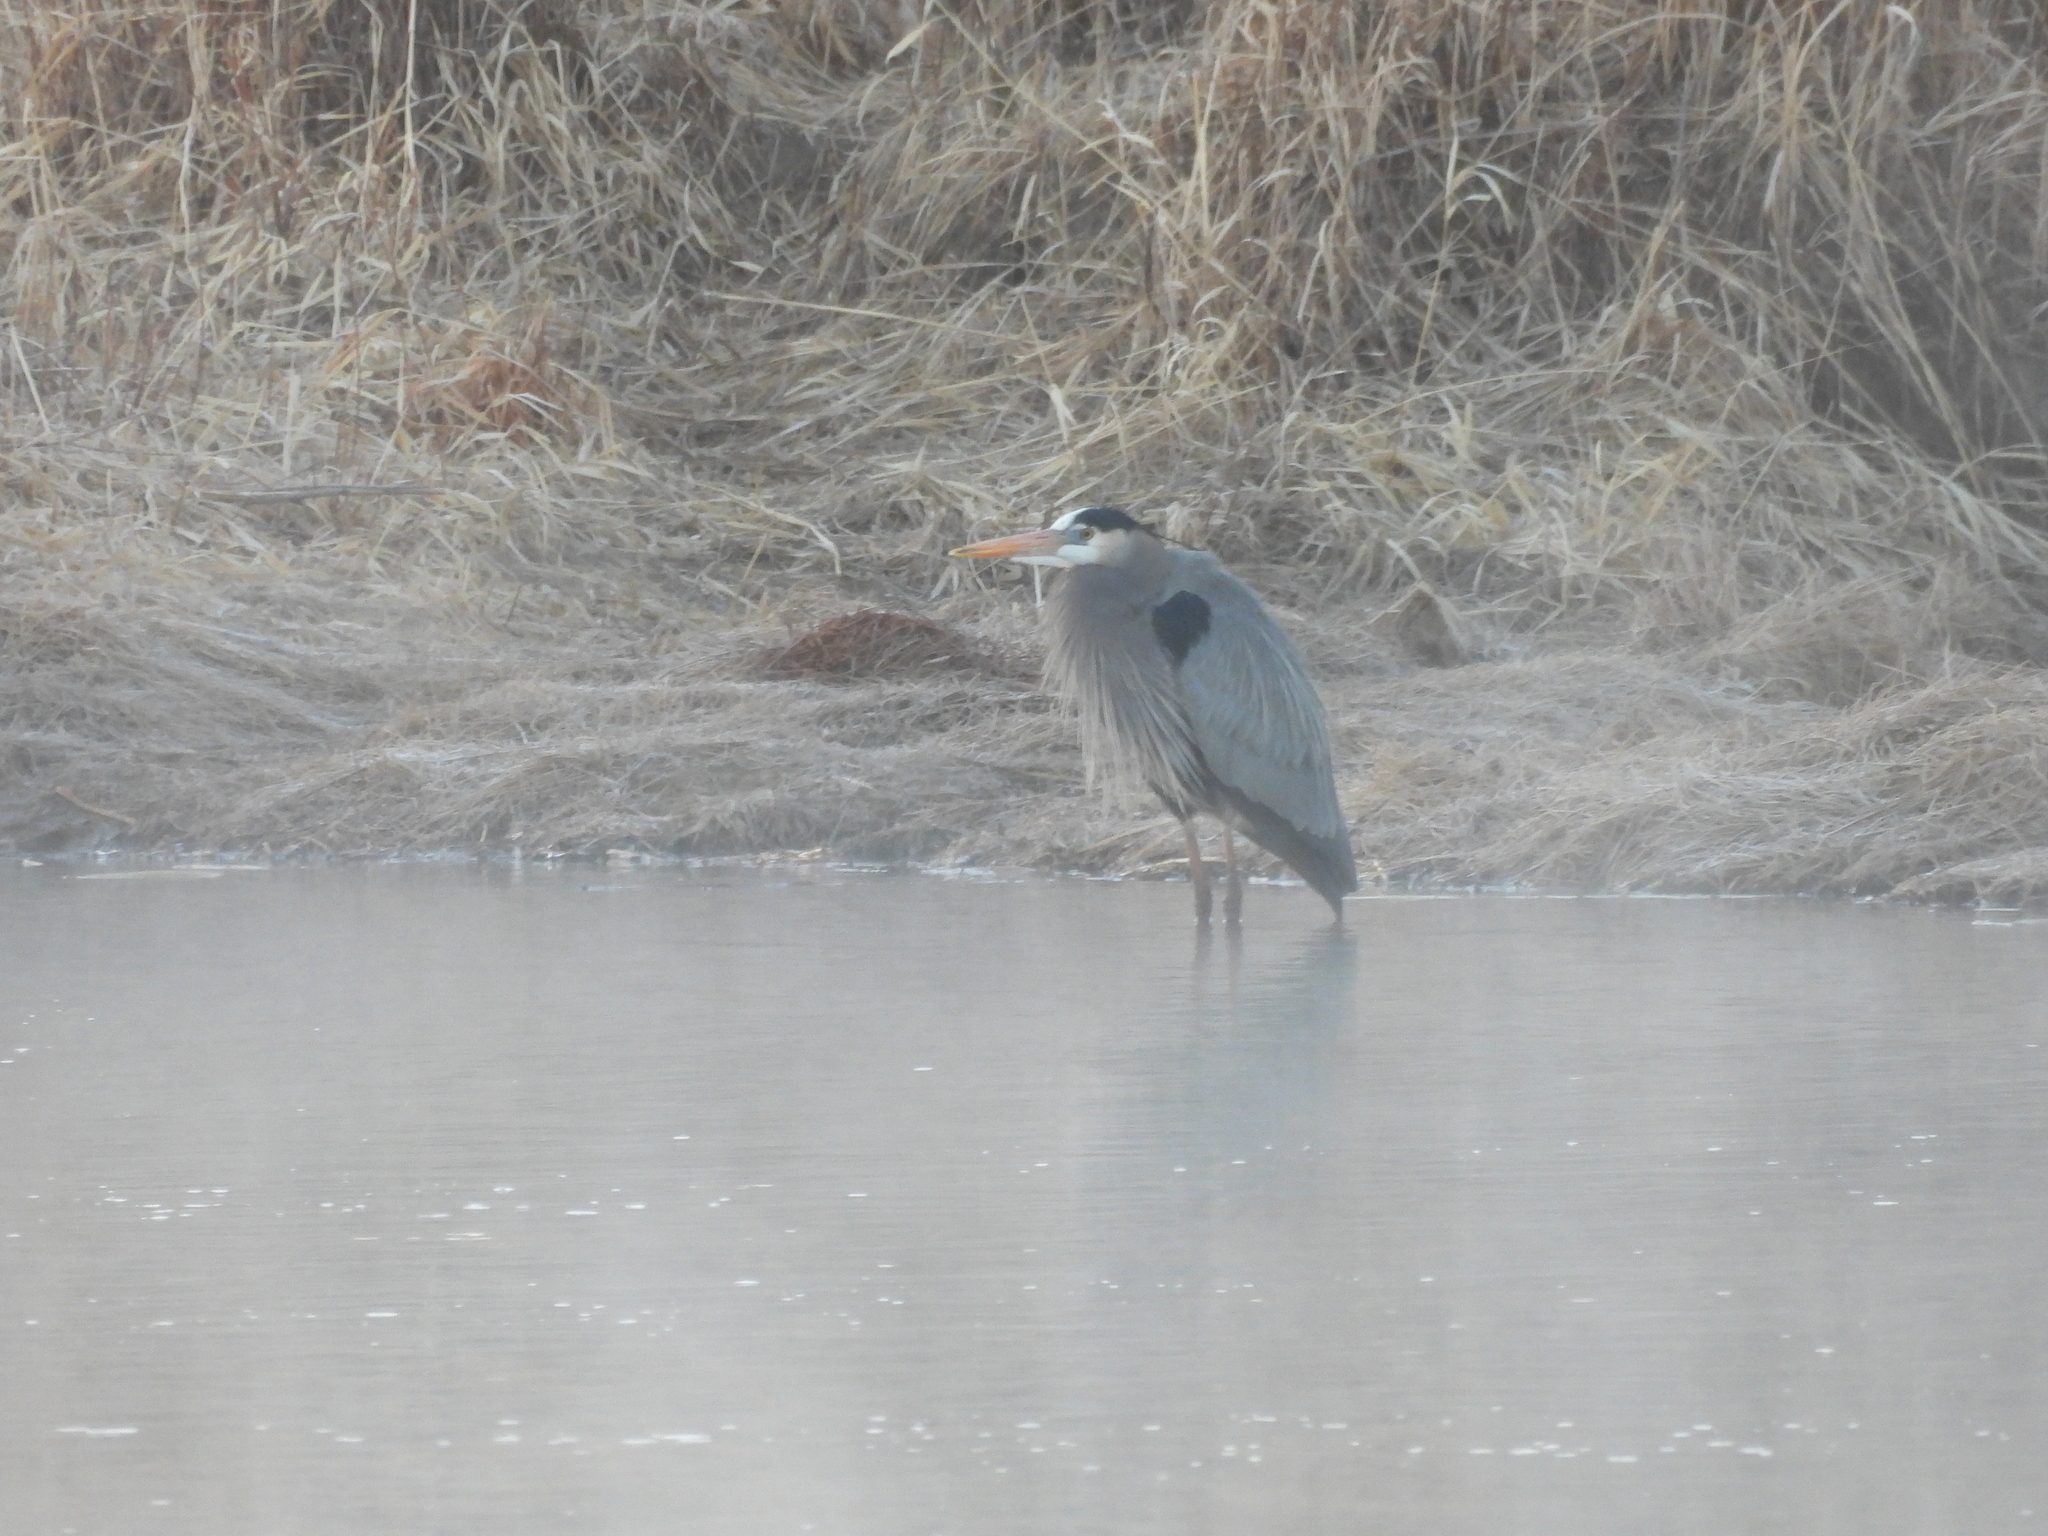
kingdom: Animalia
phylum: Chordata
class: Aves
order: Pelecaniformes
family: Ardeidae
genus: Ardea
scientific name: Ardea herodias
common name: Great blue heron
